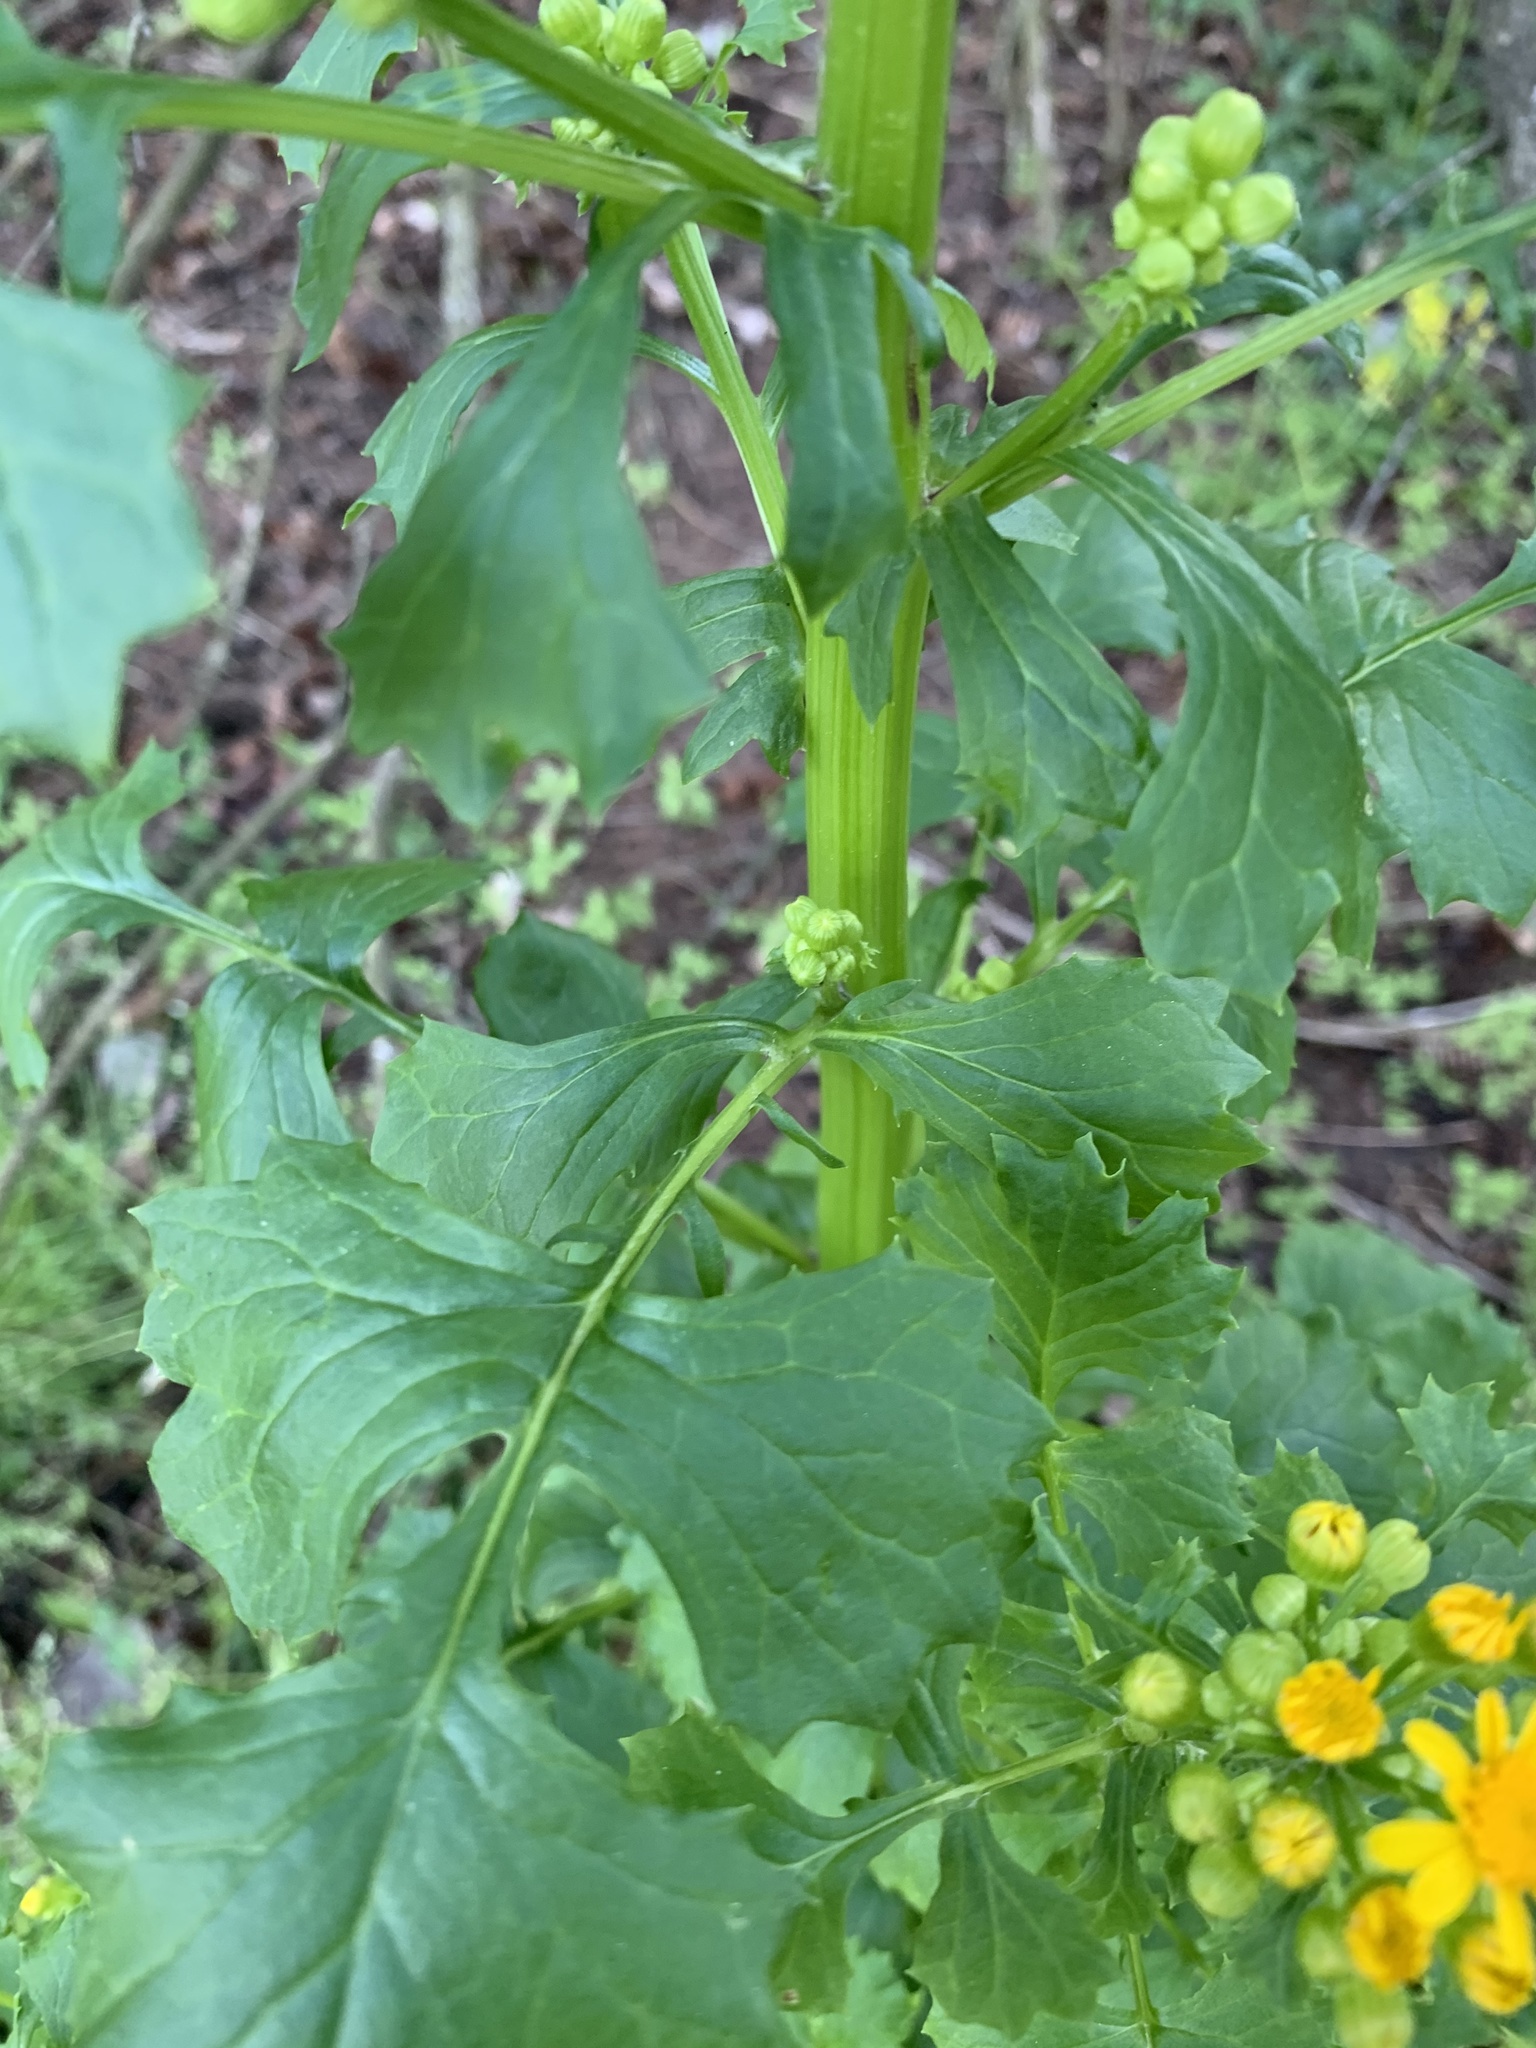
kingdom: Plantae
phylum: Tracheophyta
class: Magnoliopsida
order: Asterales
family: Asteraceae
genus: Packera
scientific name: Packera glabella
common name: Butterweed
